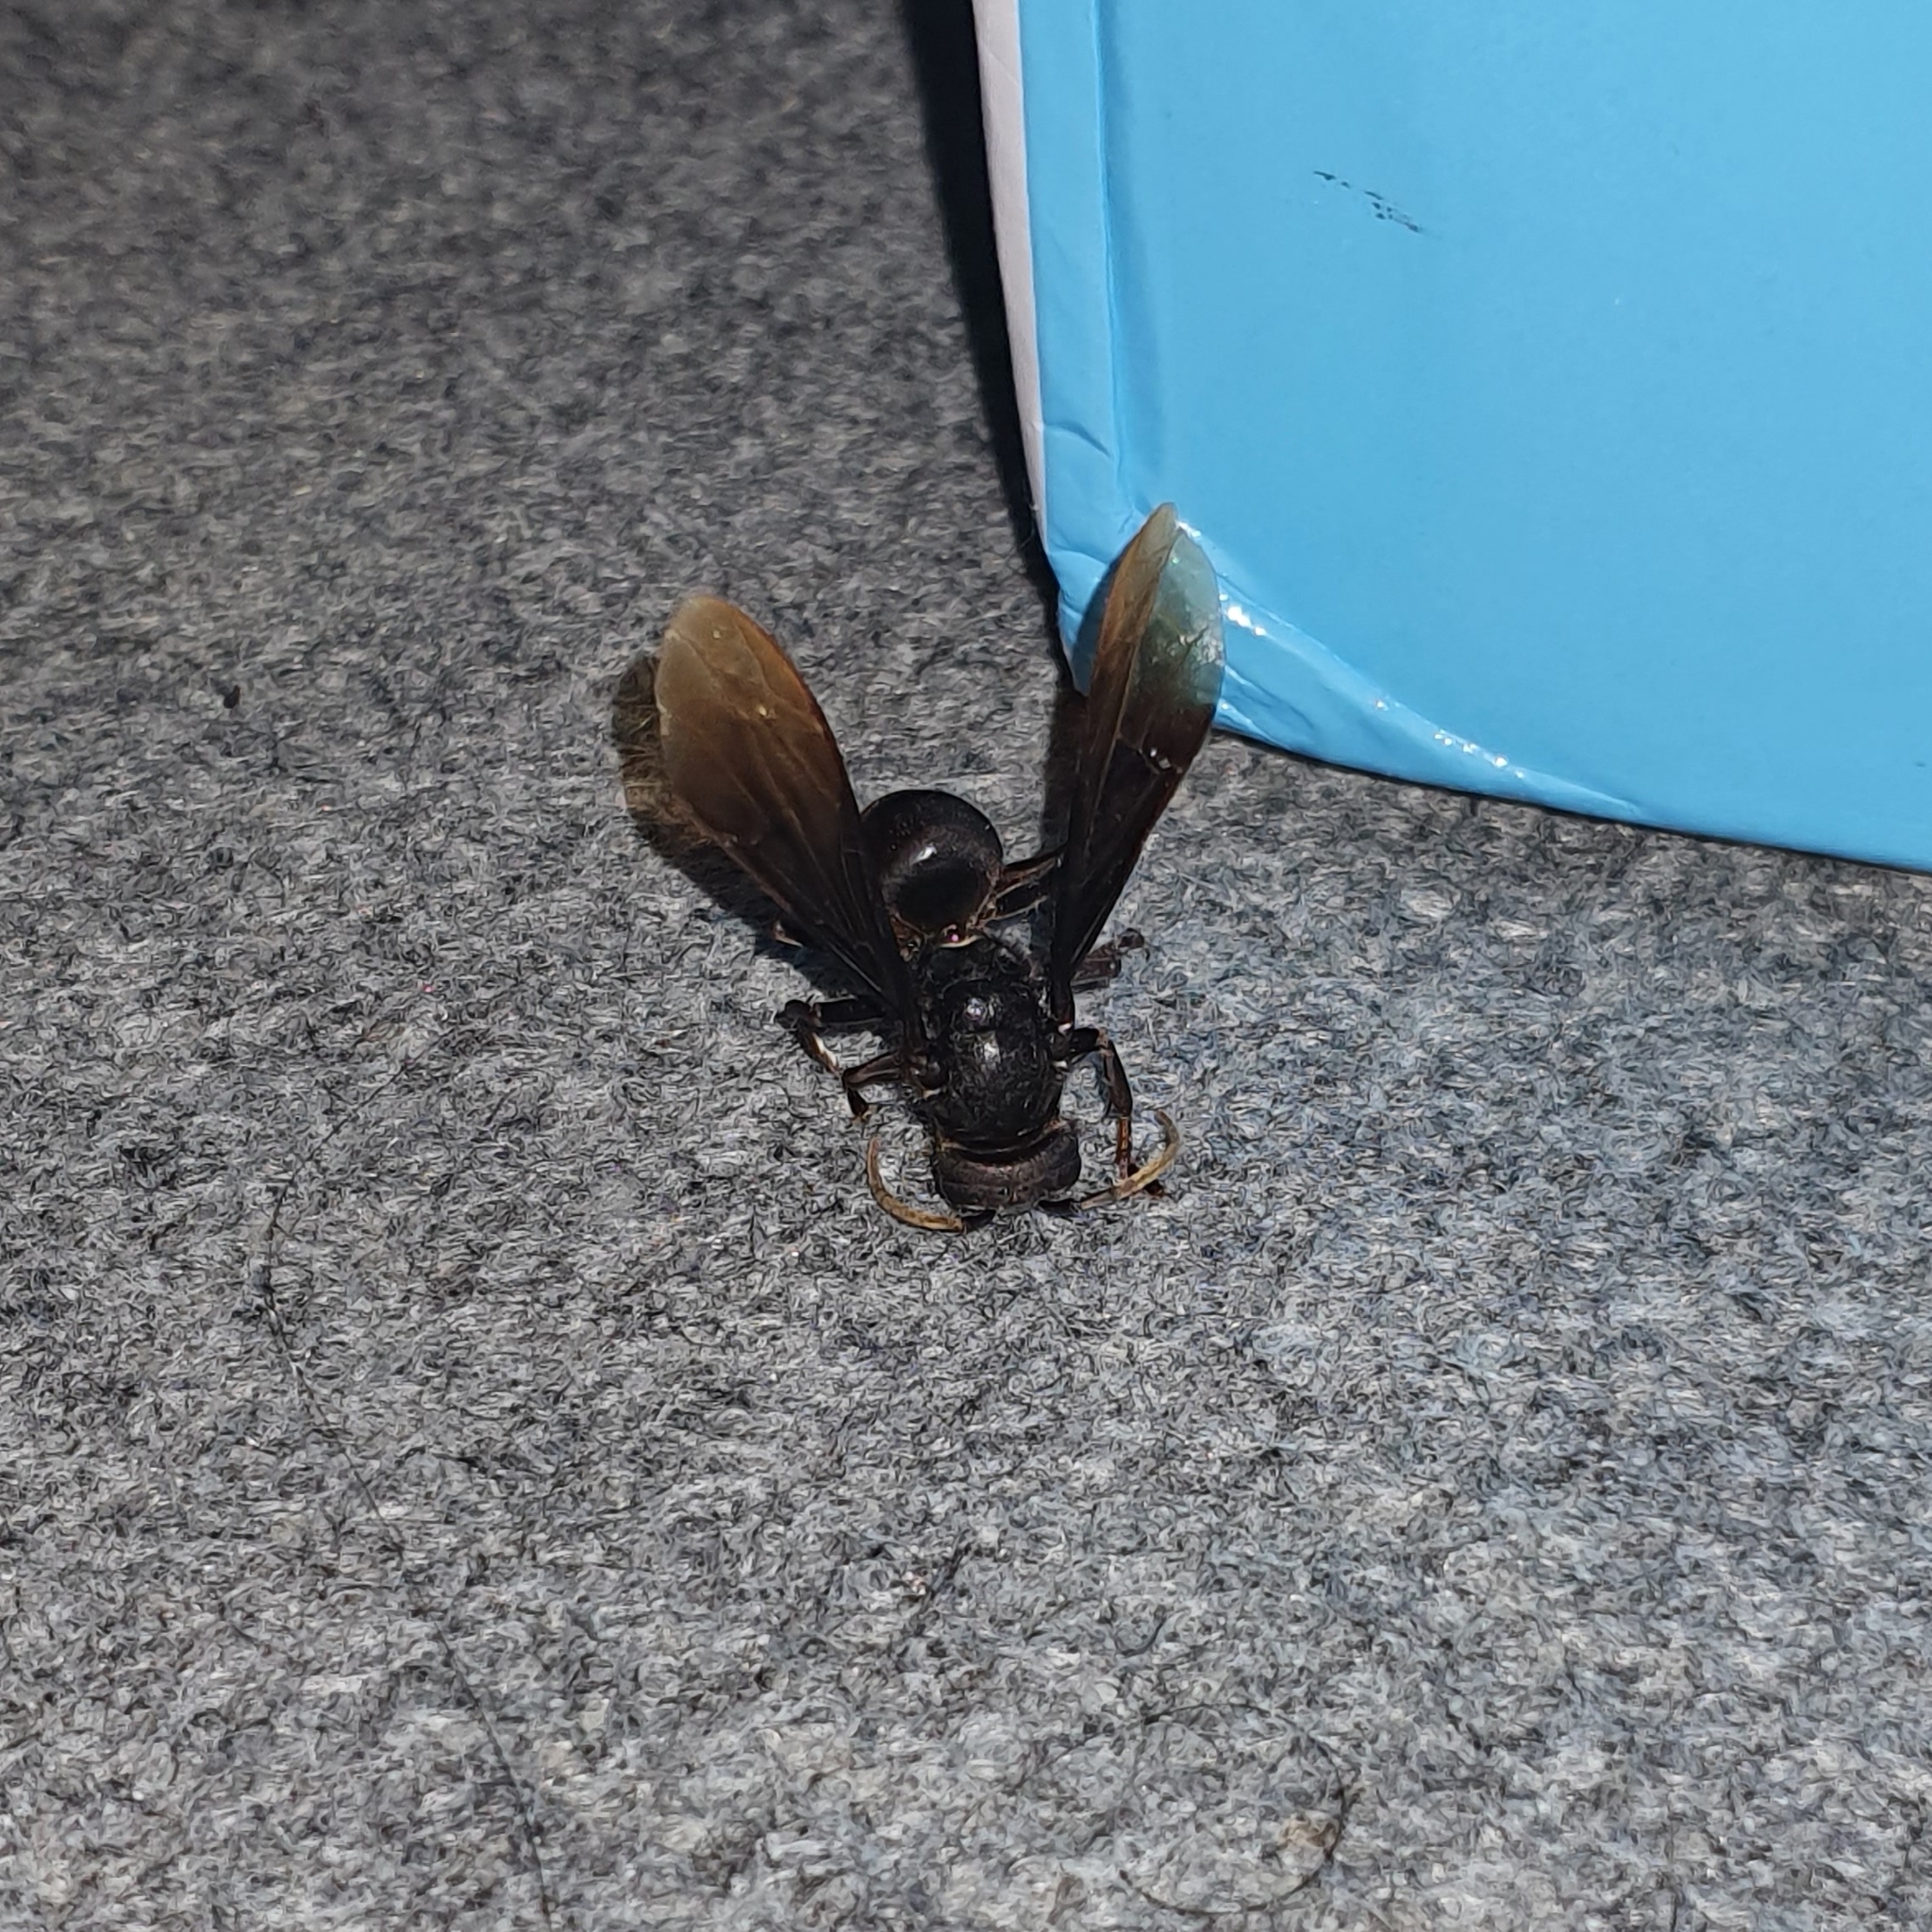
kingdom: Animalia
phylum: Arthropoda
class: Insecta
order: Hymenoptera
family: Vespidae
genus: Vespa
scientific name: Vespa tropica
